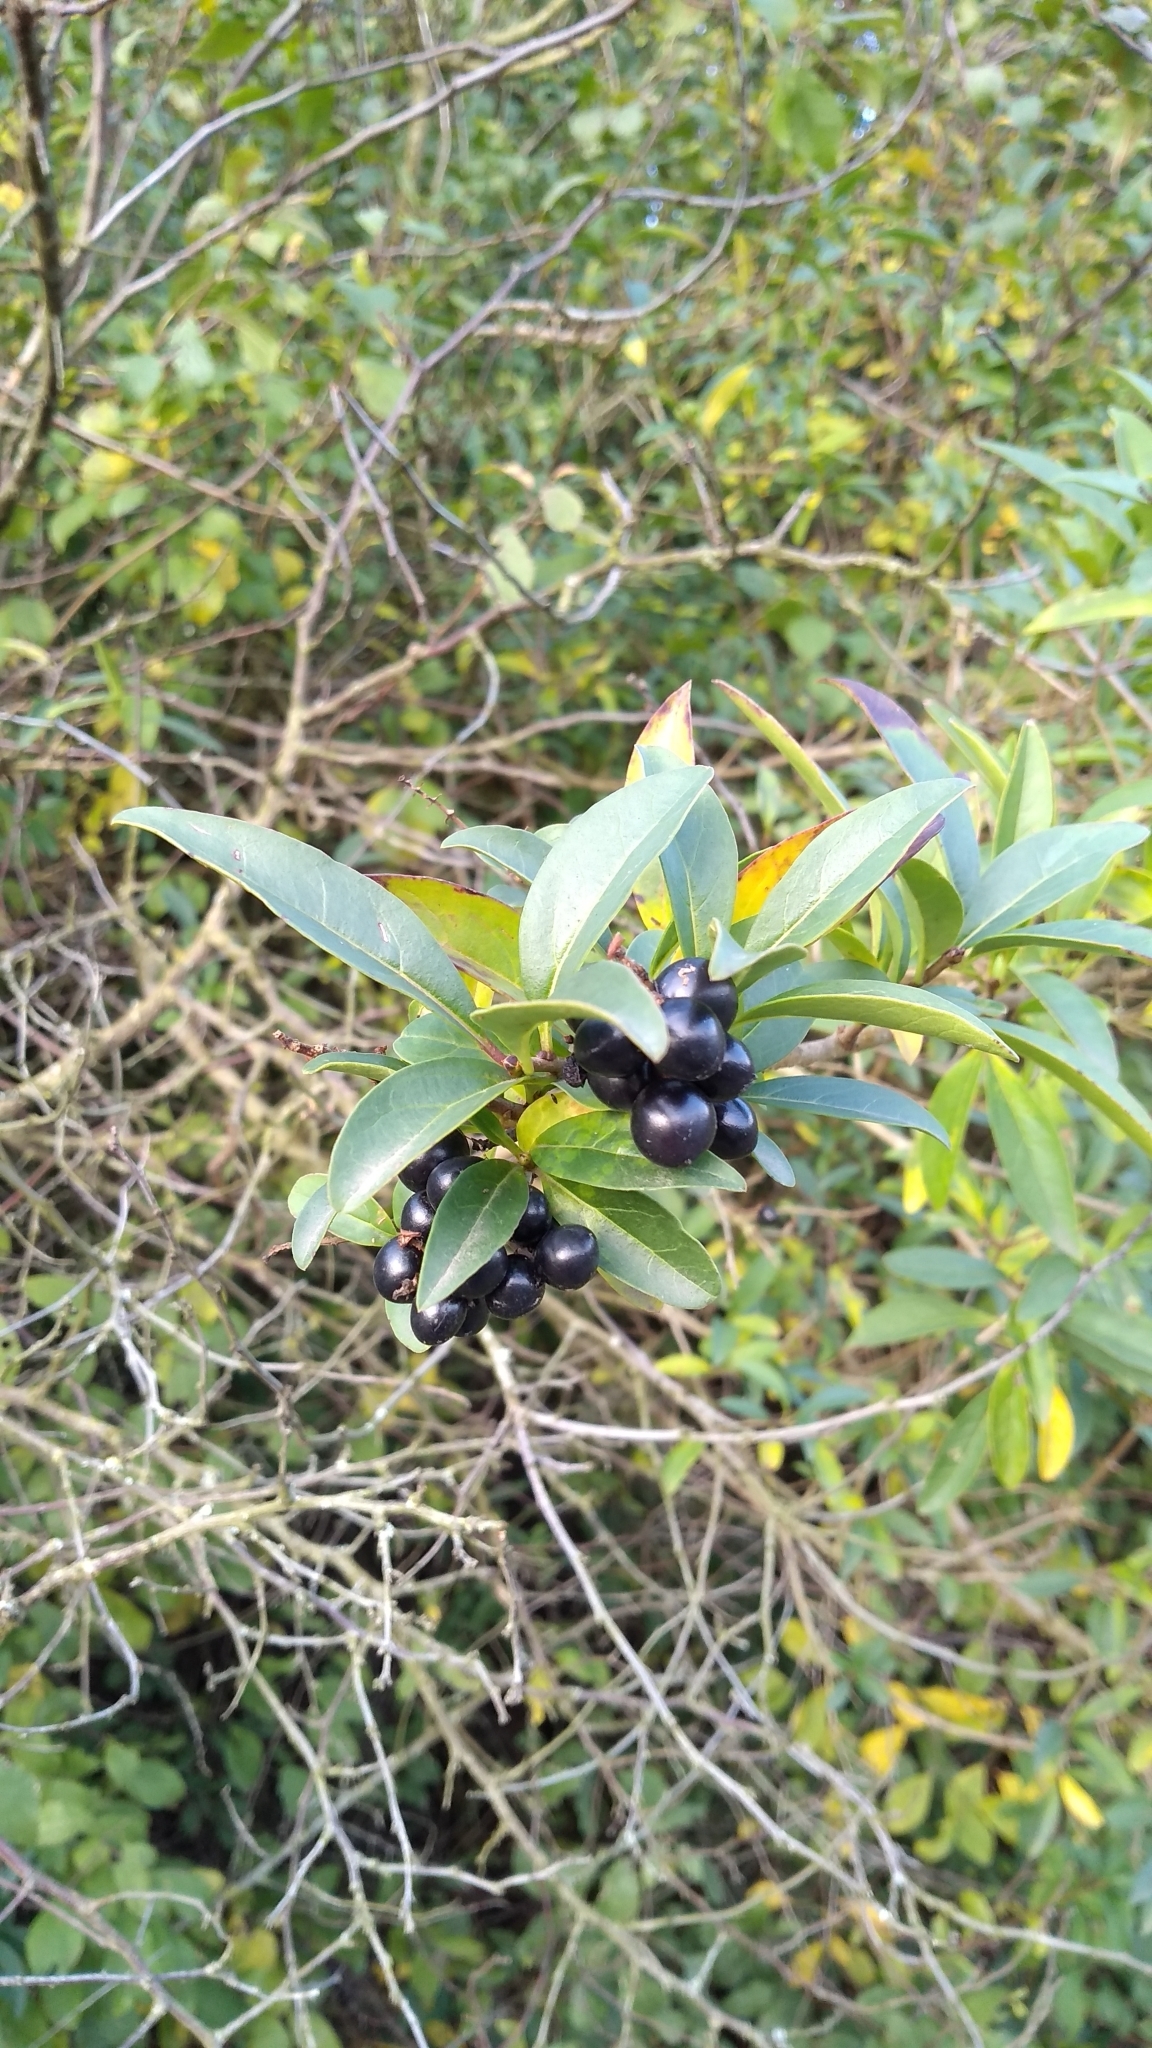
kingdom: Plantae
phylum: Tracheophyta
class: Magnoliopsida
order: Lamiales
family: Oleaceae
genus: Ligustrum
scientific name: Ligustrum vulgare
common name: Wild privet
